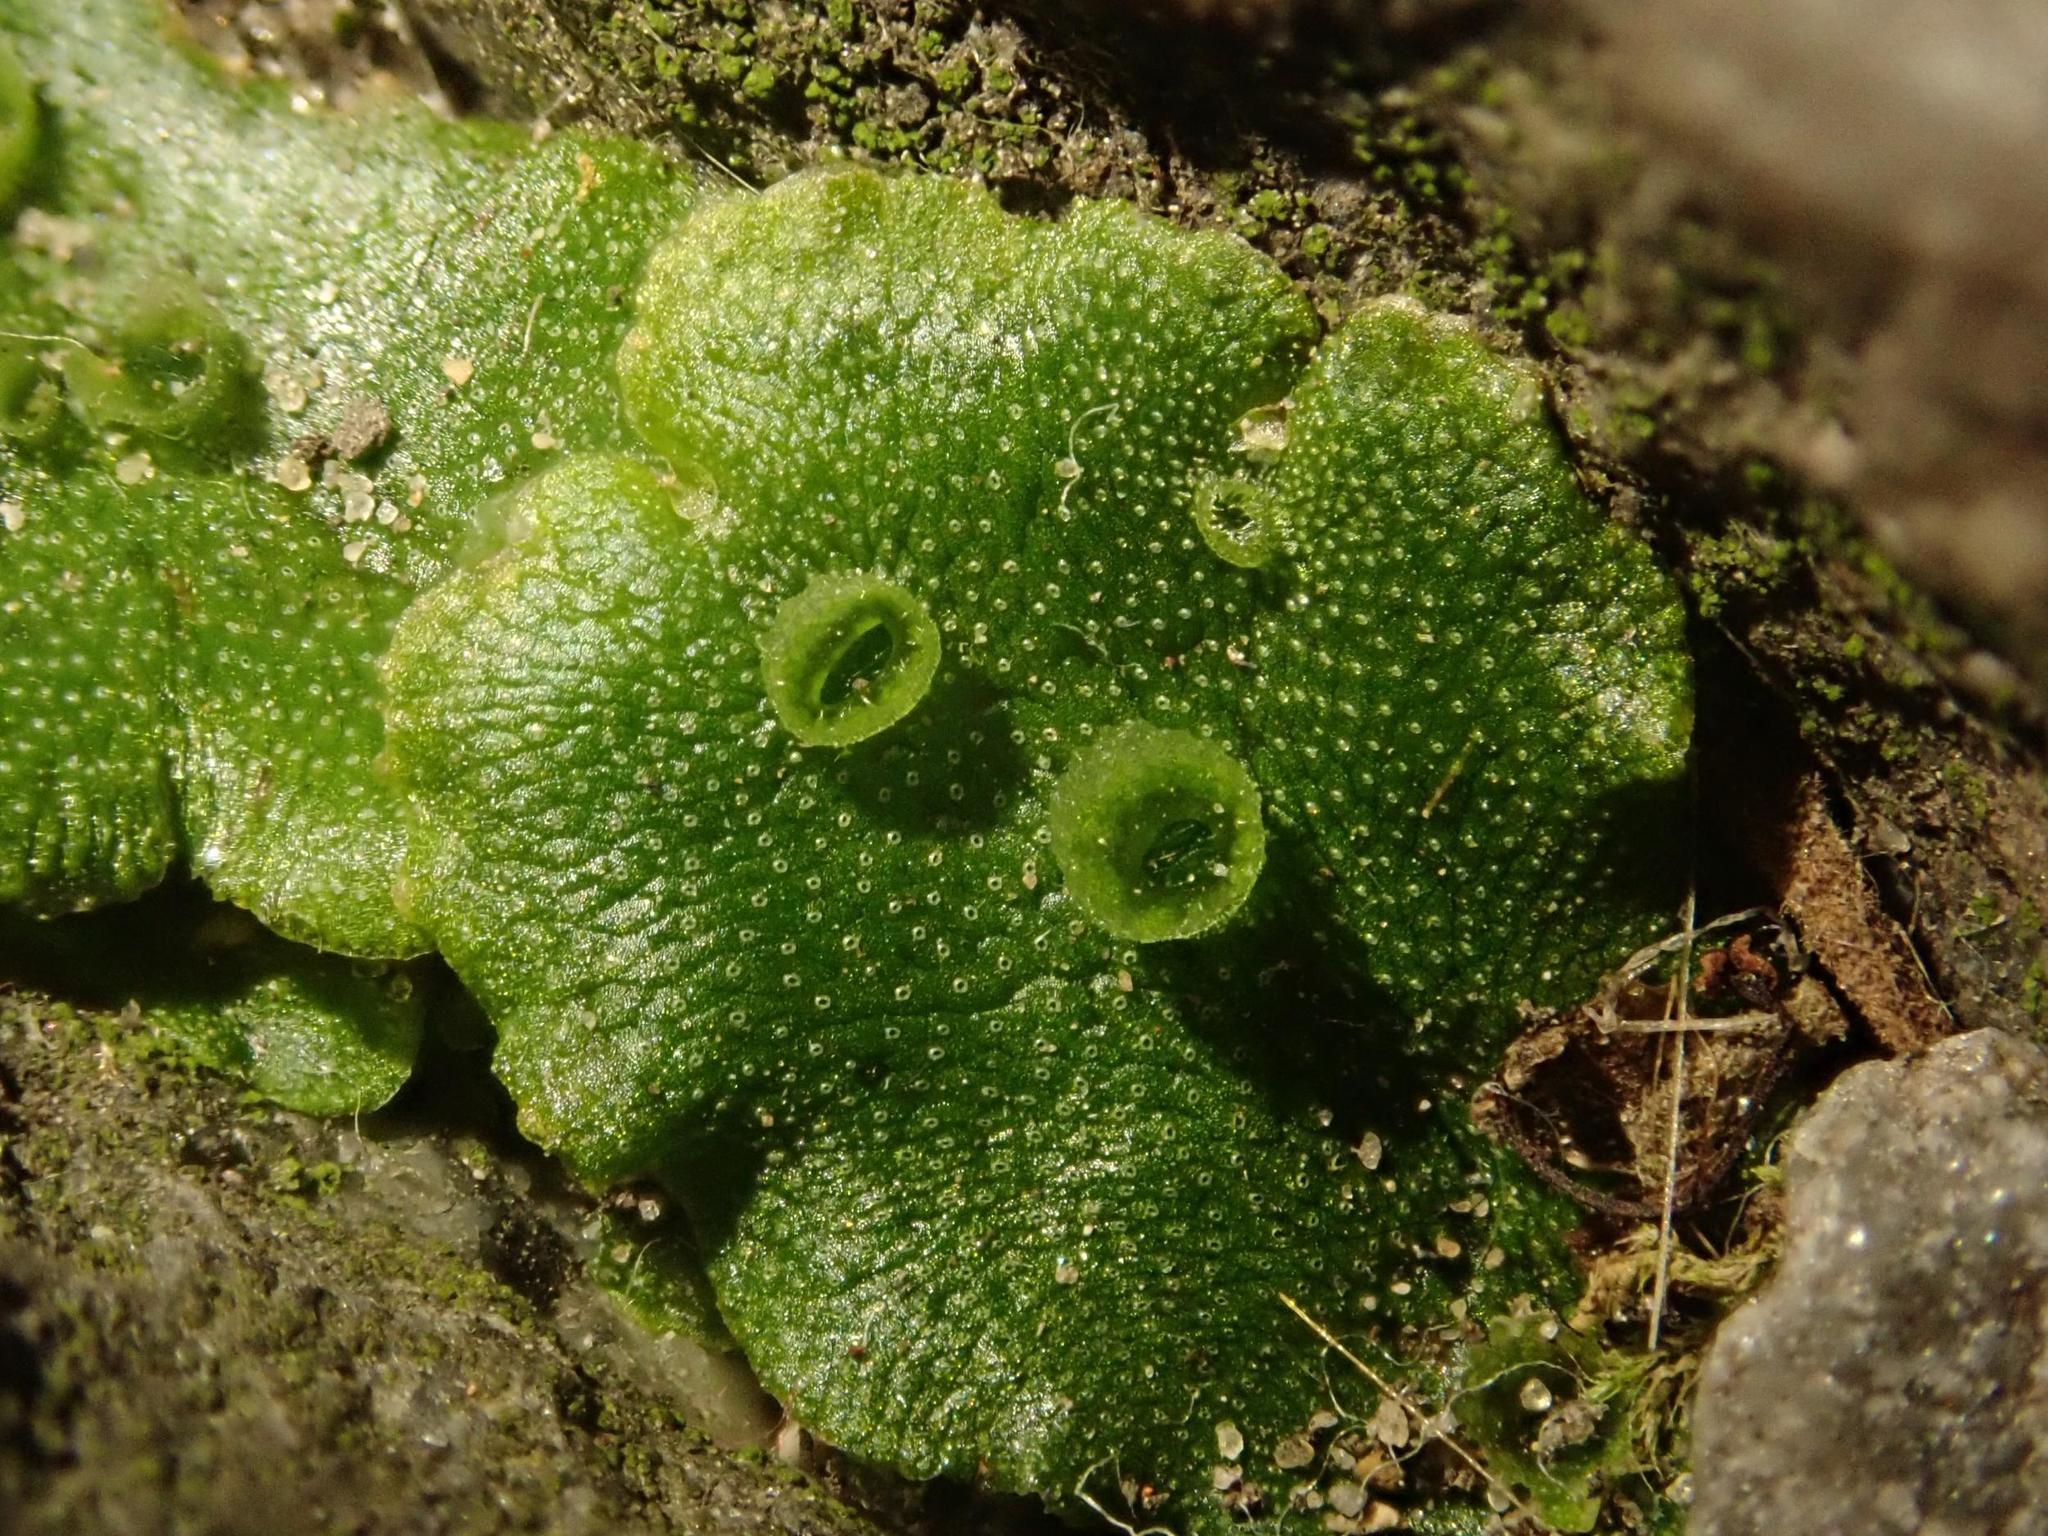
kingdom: Plantae
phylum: Marchantiophyta
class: Marchantiopsida
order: Marchantiales
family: Marchantiaceae
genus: Marchantia
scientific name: Marchantia polymorpha
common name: Common liverwort
